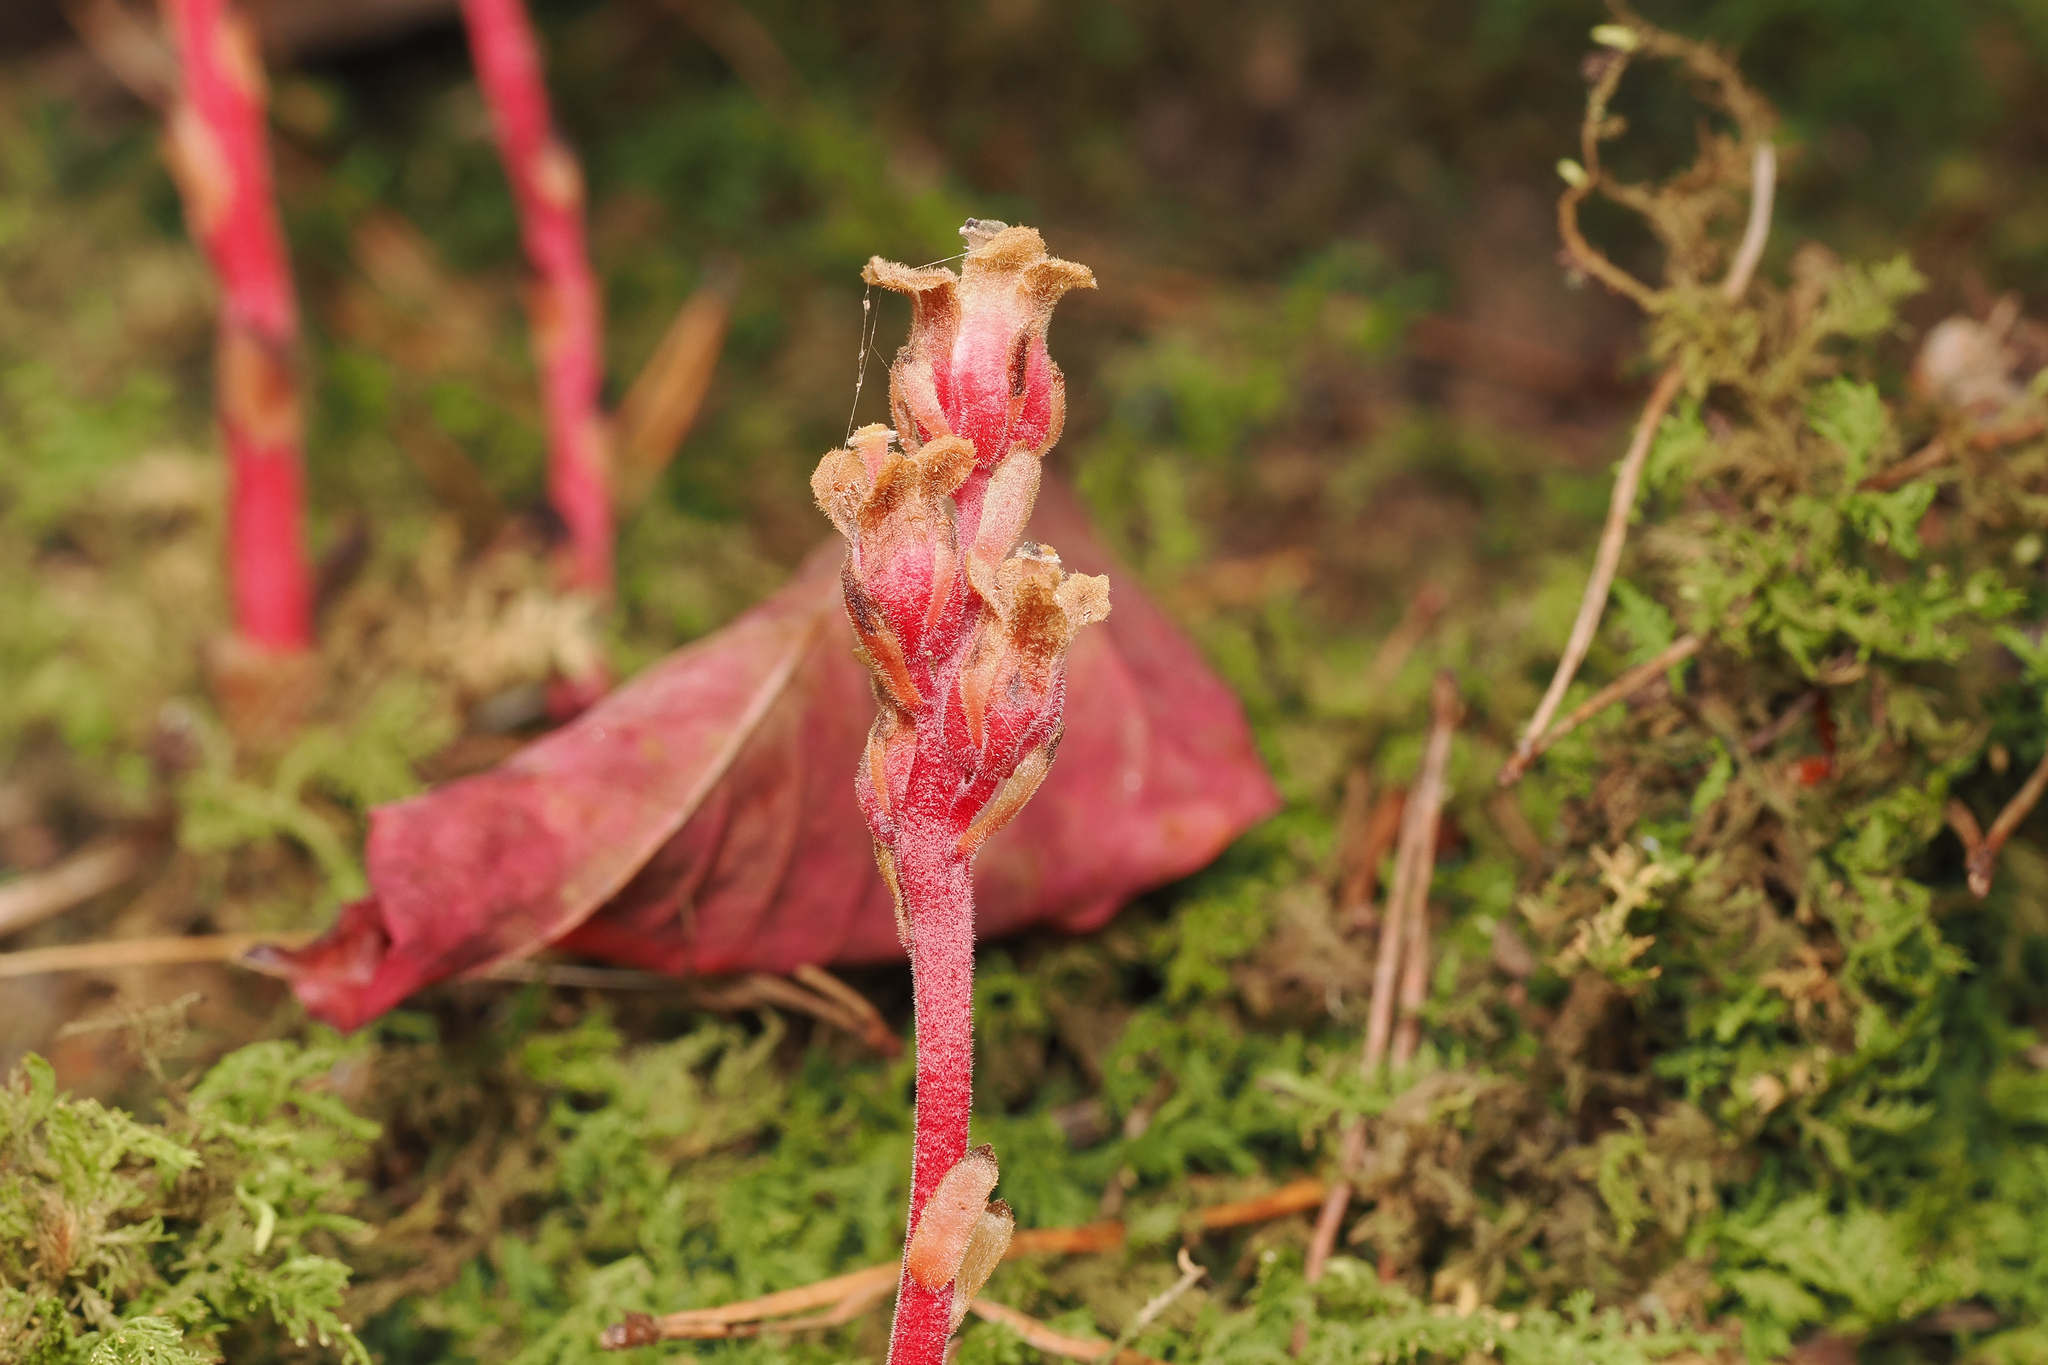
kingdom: Plantae
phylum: Tracheophyta
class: Magnoliopsida
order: Ericales
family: Ericaceae
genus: Hypopitys
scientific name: Hypopitys monotropa
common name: Yellow bird's-nest
